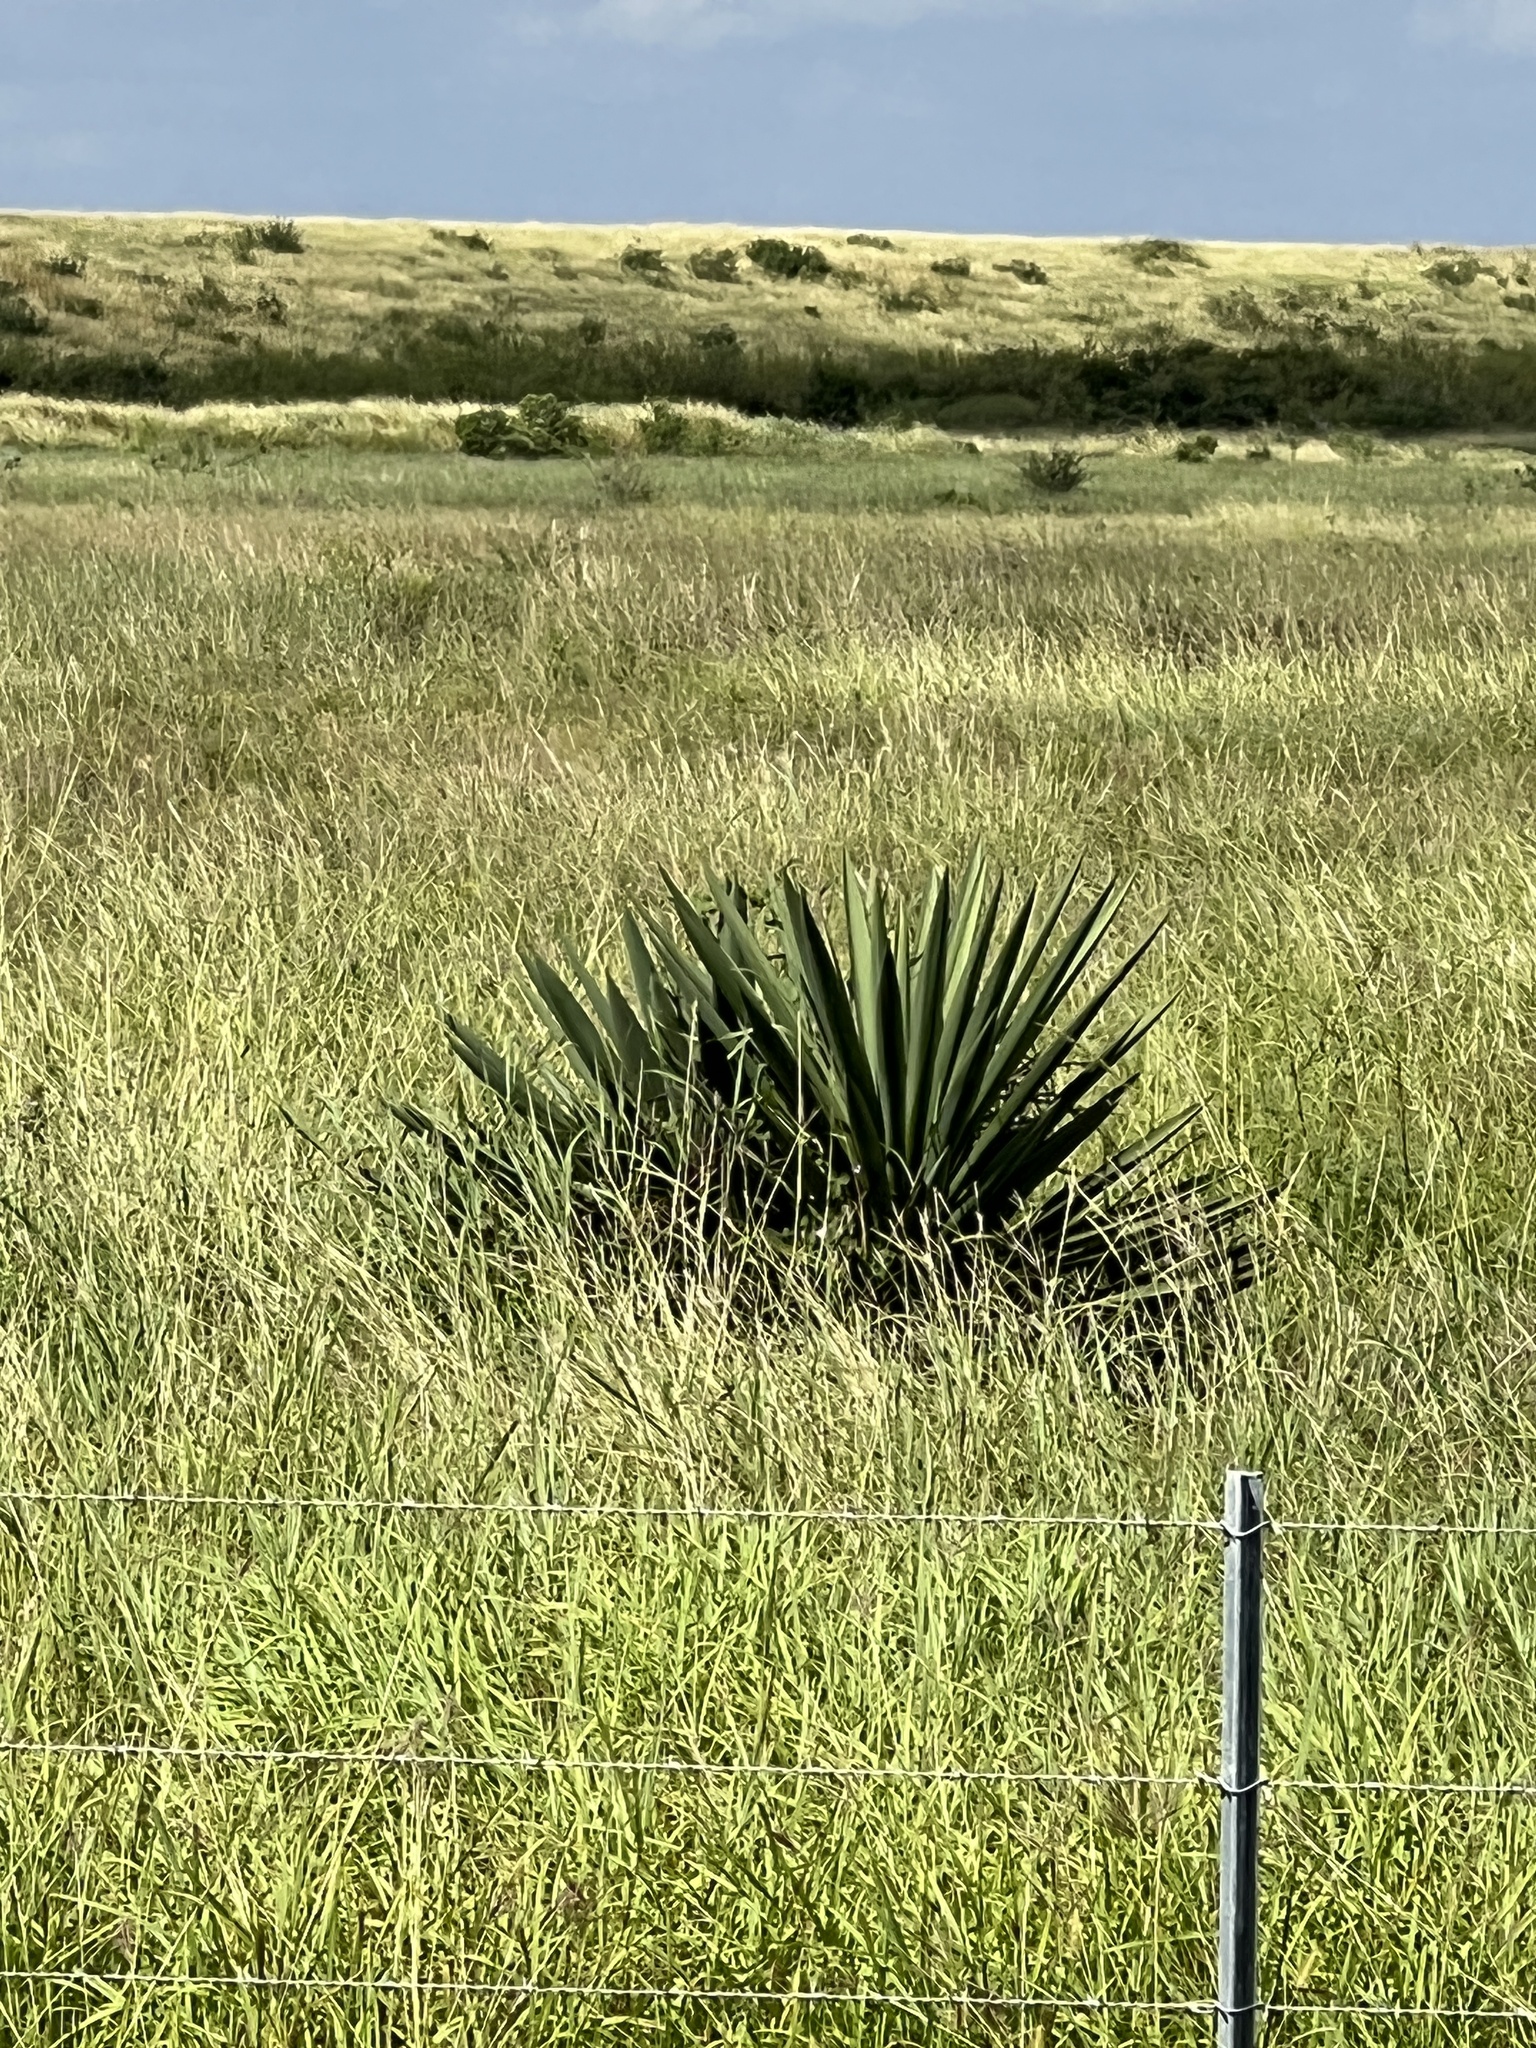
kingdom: Plantae
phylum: Tracheophyta
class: Liliopsida
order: Asparagales
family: Asparagaceae
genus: Yucca
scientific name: Yucca treculiana
